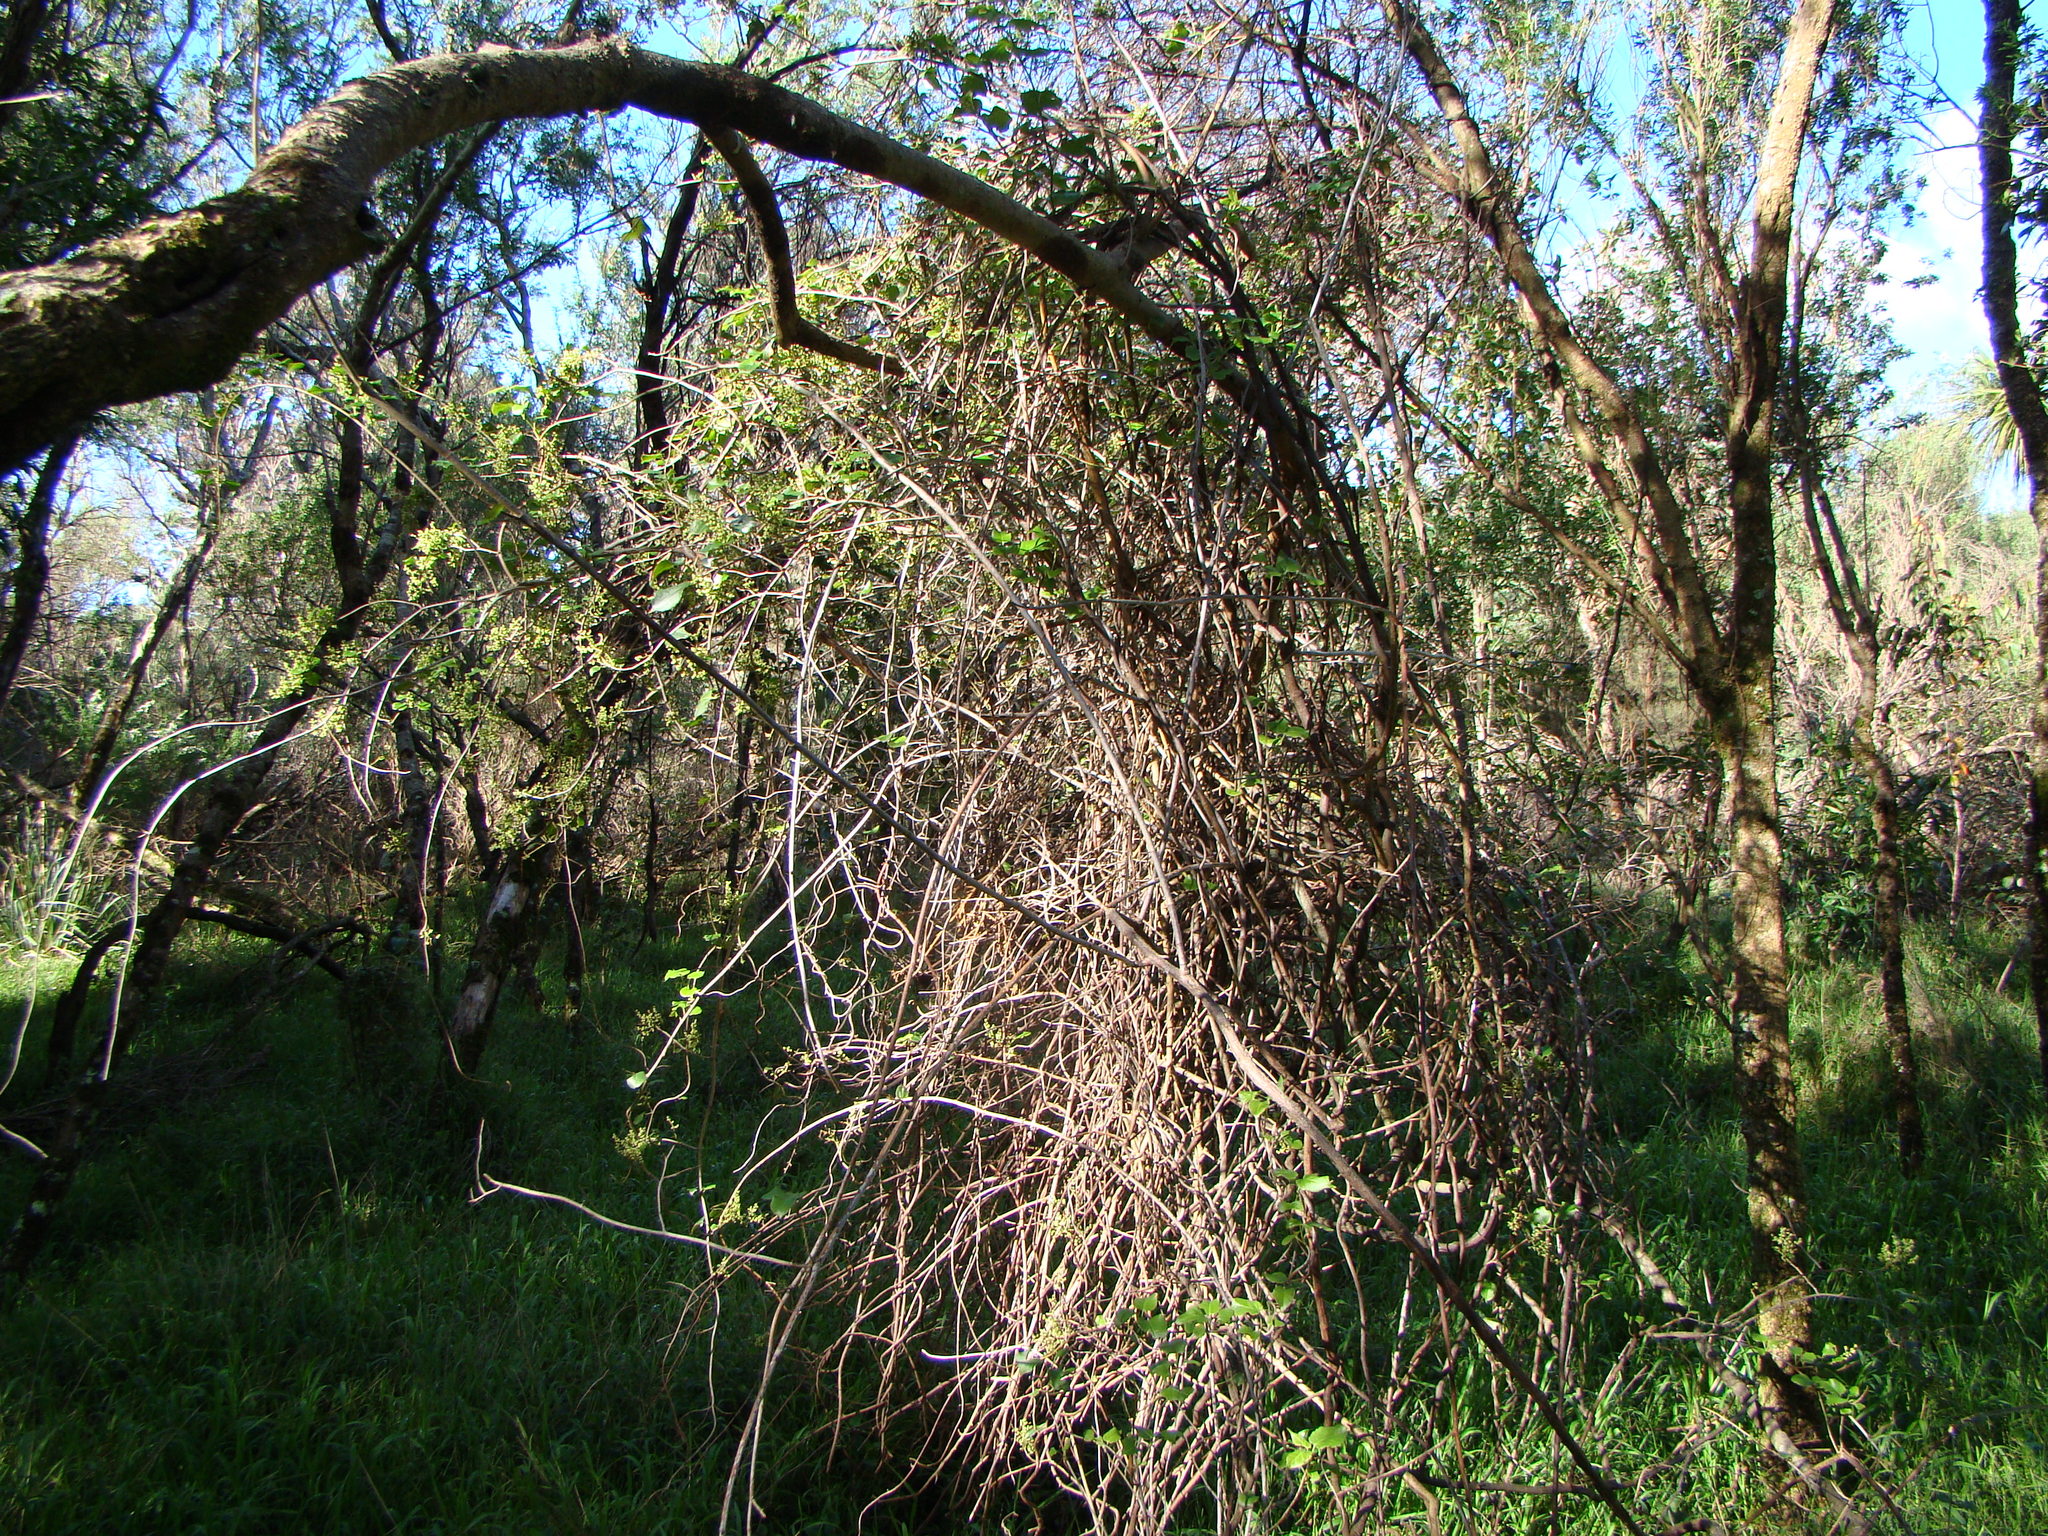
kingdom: Plantae
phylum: Tracheophyta
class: Magnoliopsida
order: Caryophyllales
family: Polygonaceae
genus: Muehlenbeckia
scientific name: Muehlenbeckia australis
